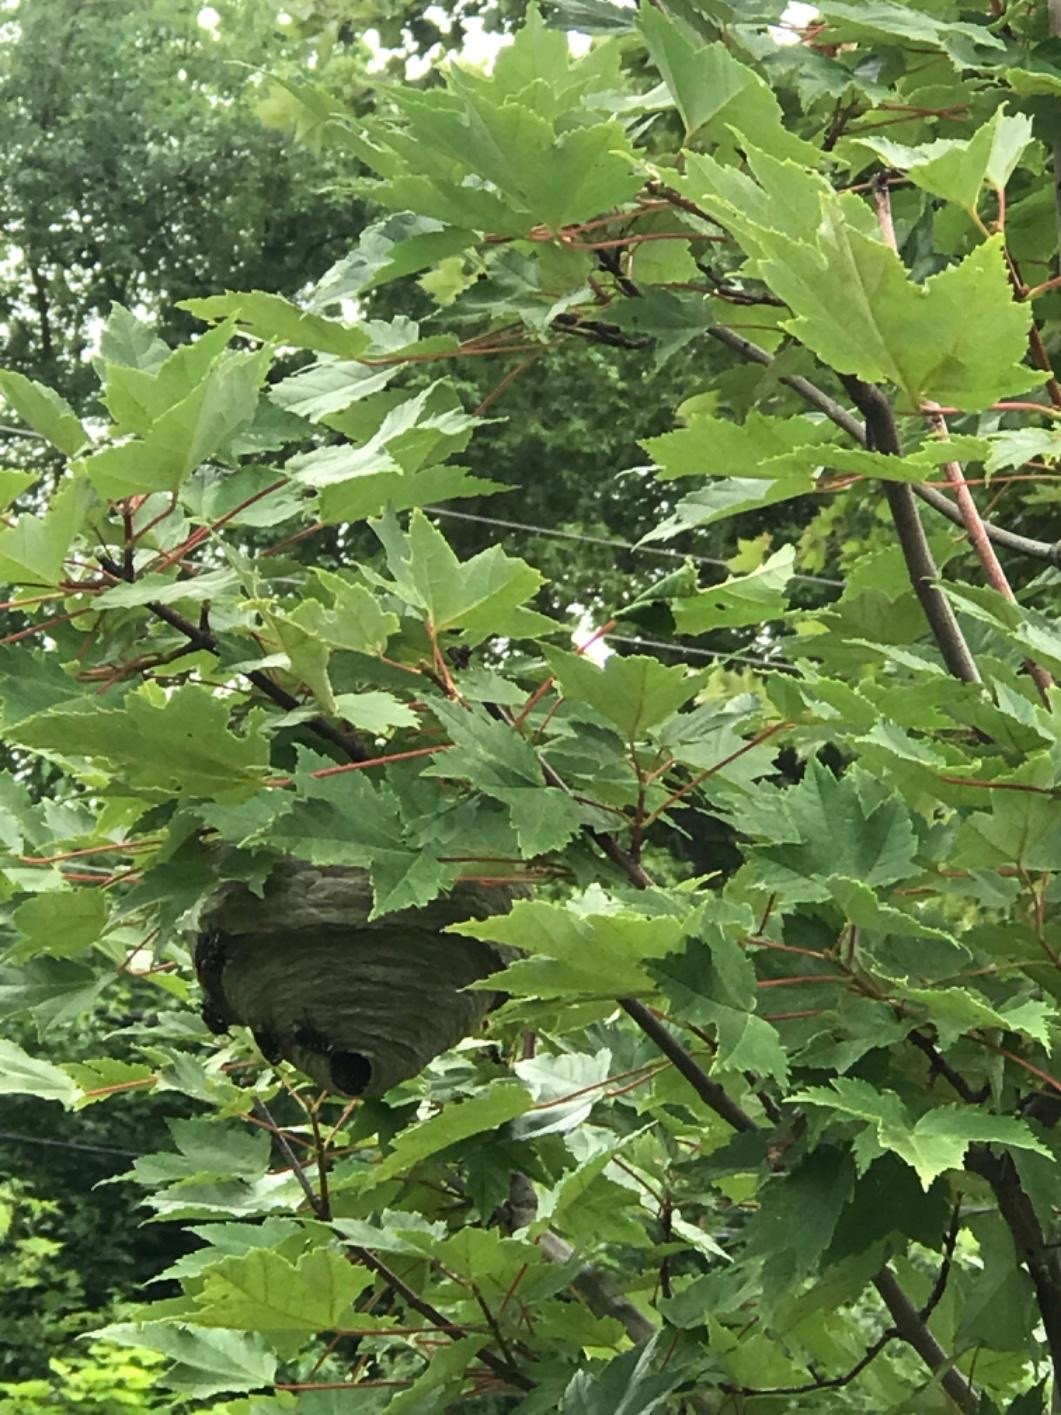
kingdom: Animalia
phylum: Arthropoda
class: Insecta
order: Hymenoptera
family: Vespidae
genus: Dolichovespula
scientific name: Dolichovespula maculata
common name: Bald-faced hornet
